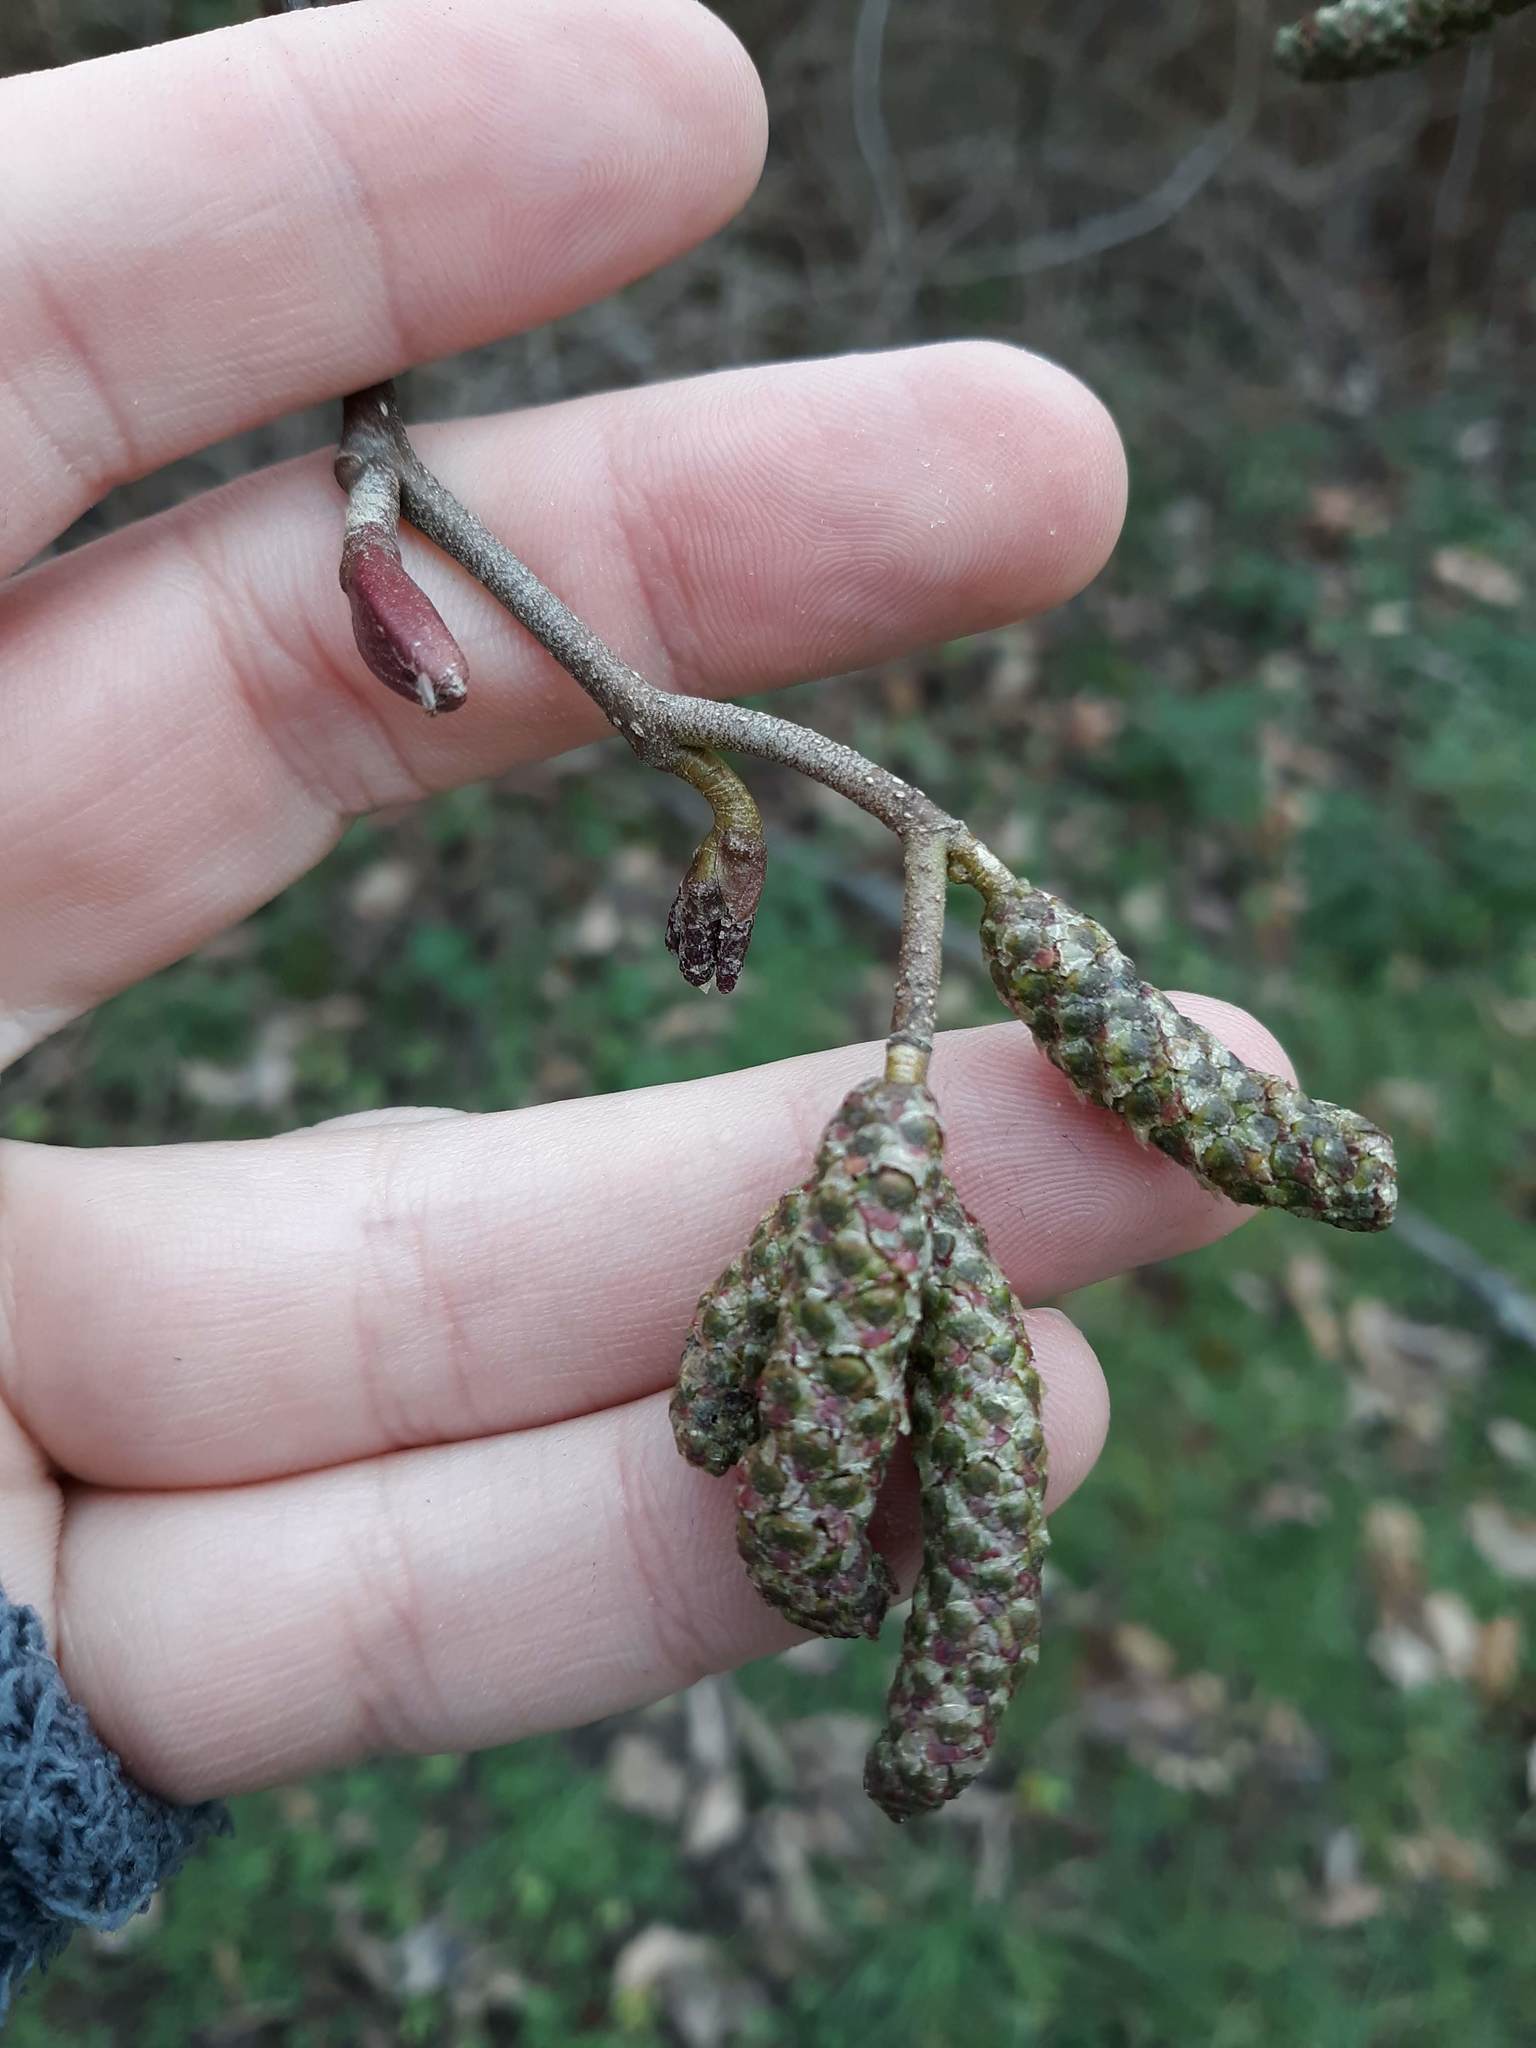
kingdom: Plantae
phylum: Tracheophyta
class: Magnoliopsida
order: Fagales
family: Betulaceae
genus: Alnus
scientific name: Alnus rubra
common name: Red alder
